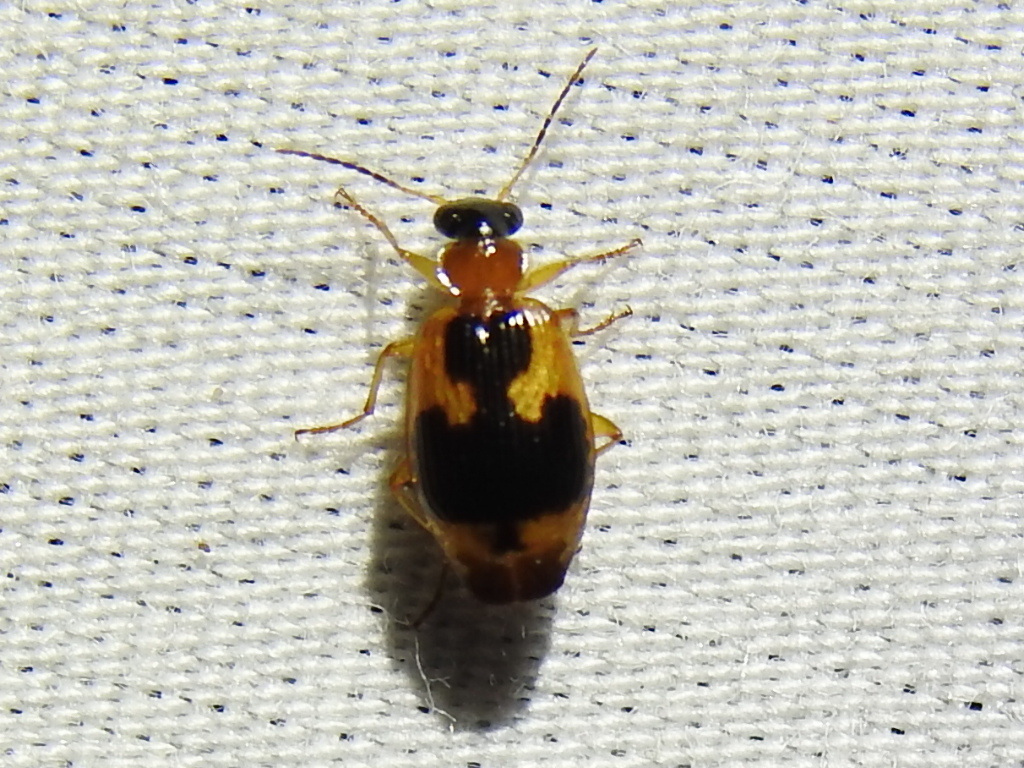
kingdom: Animalia
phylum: Arthropoda
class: Insecta
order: Coleoptera
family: Carabidae
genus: Lebia
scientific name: Lebia analis
